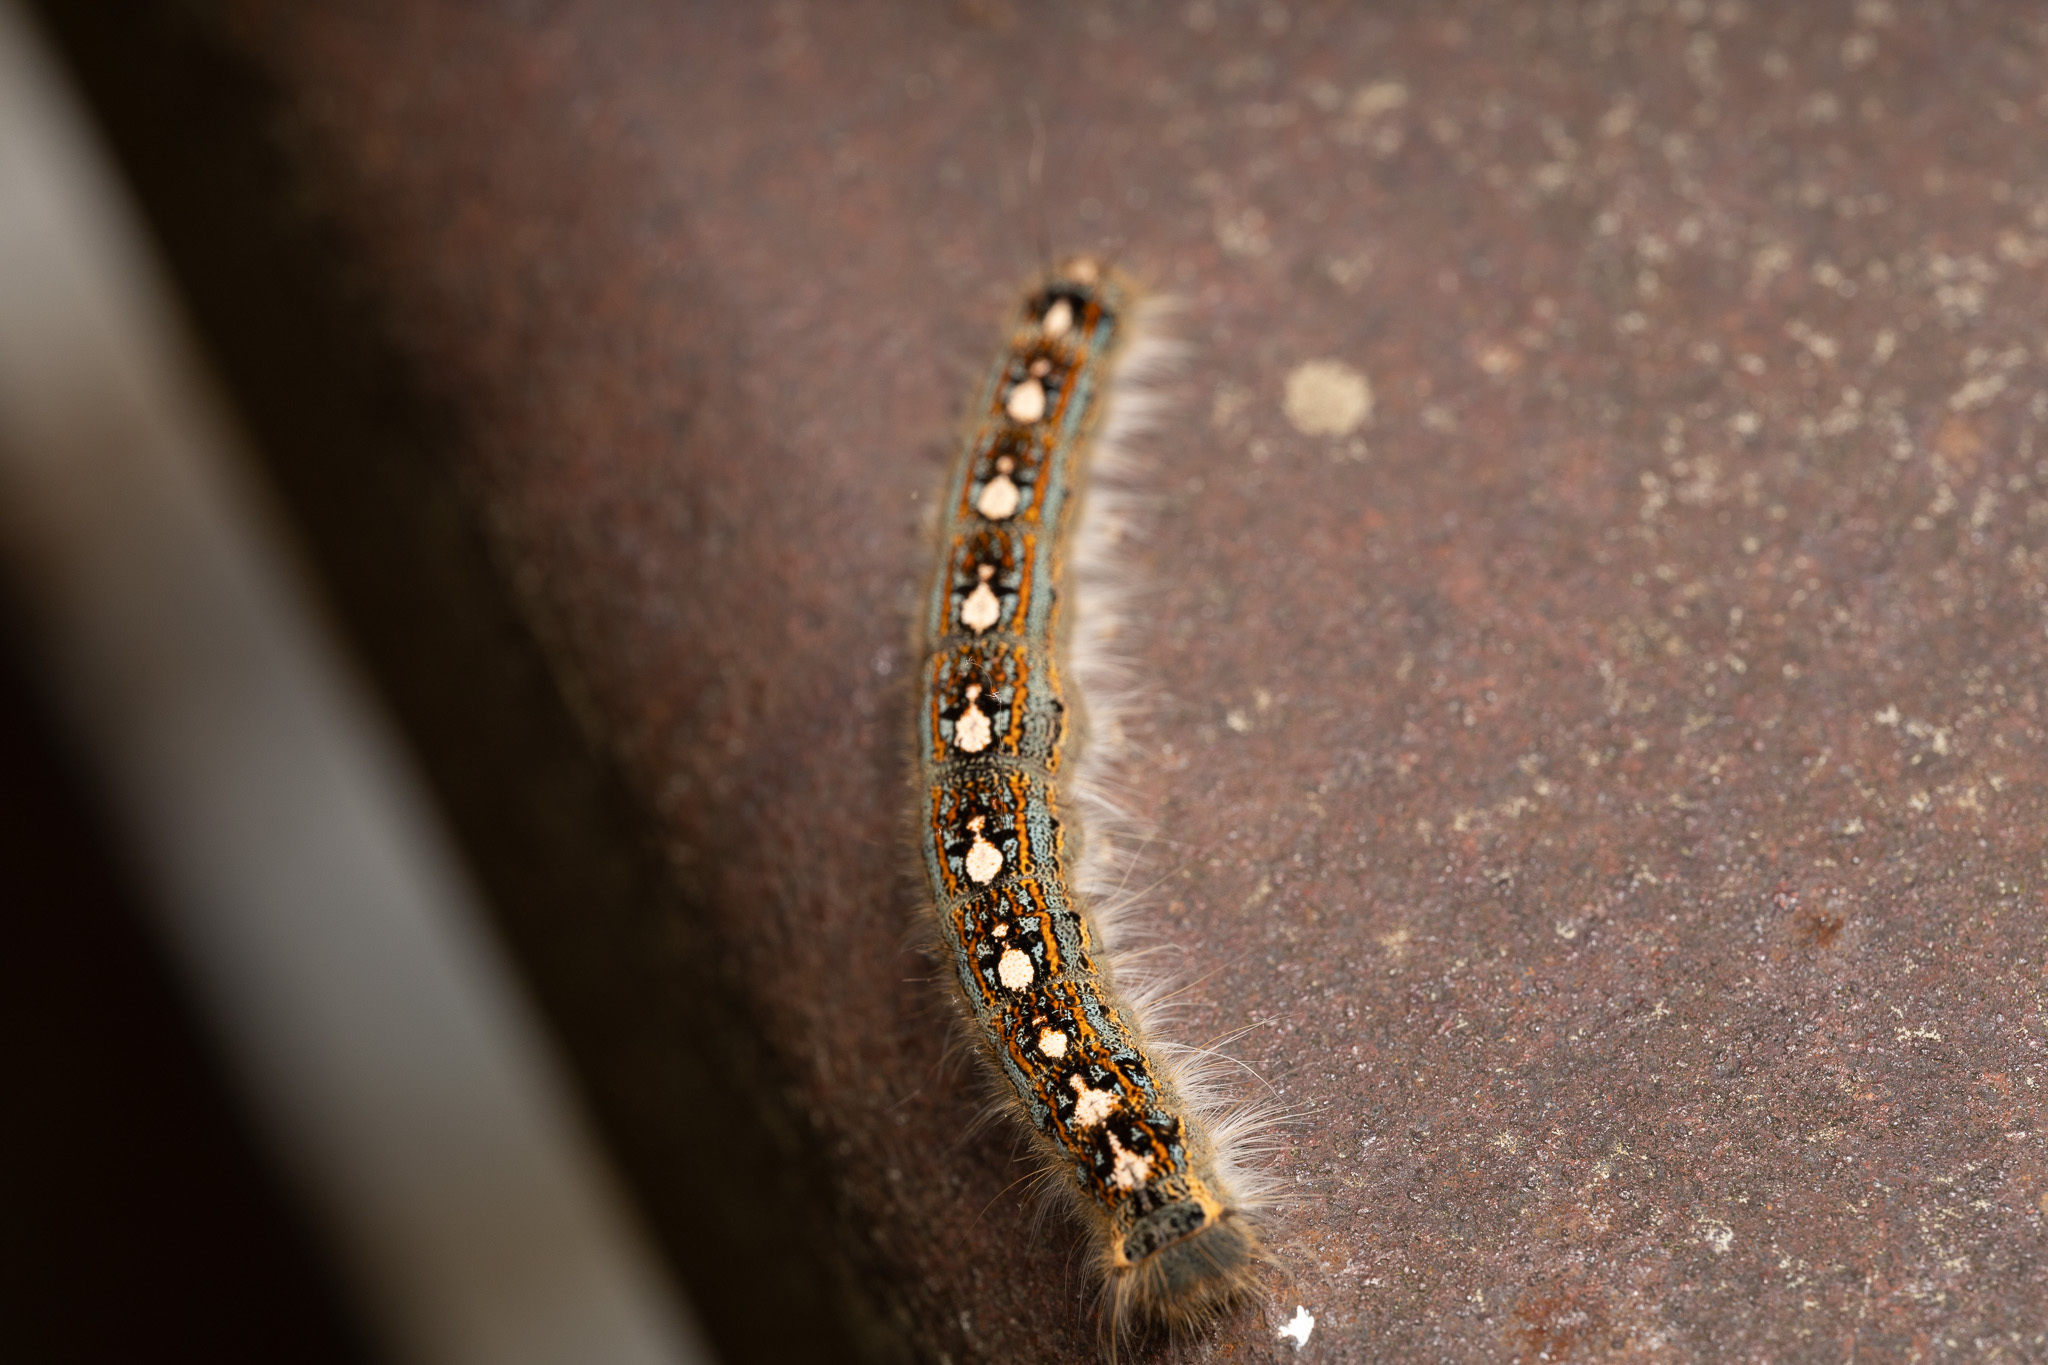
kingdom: Animalia
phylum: Arthropoda
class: Insecta
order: Lepidoptera
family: Lasiocampidae
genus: Malacosoma
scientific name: Malacosoma disstria
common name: Forest tent caterpillar
